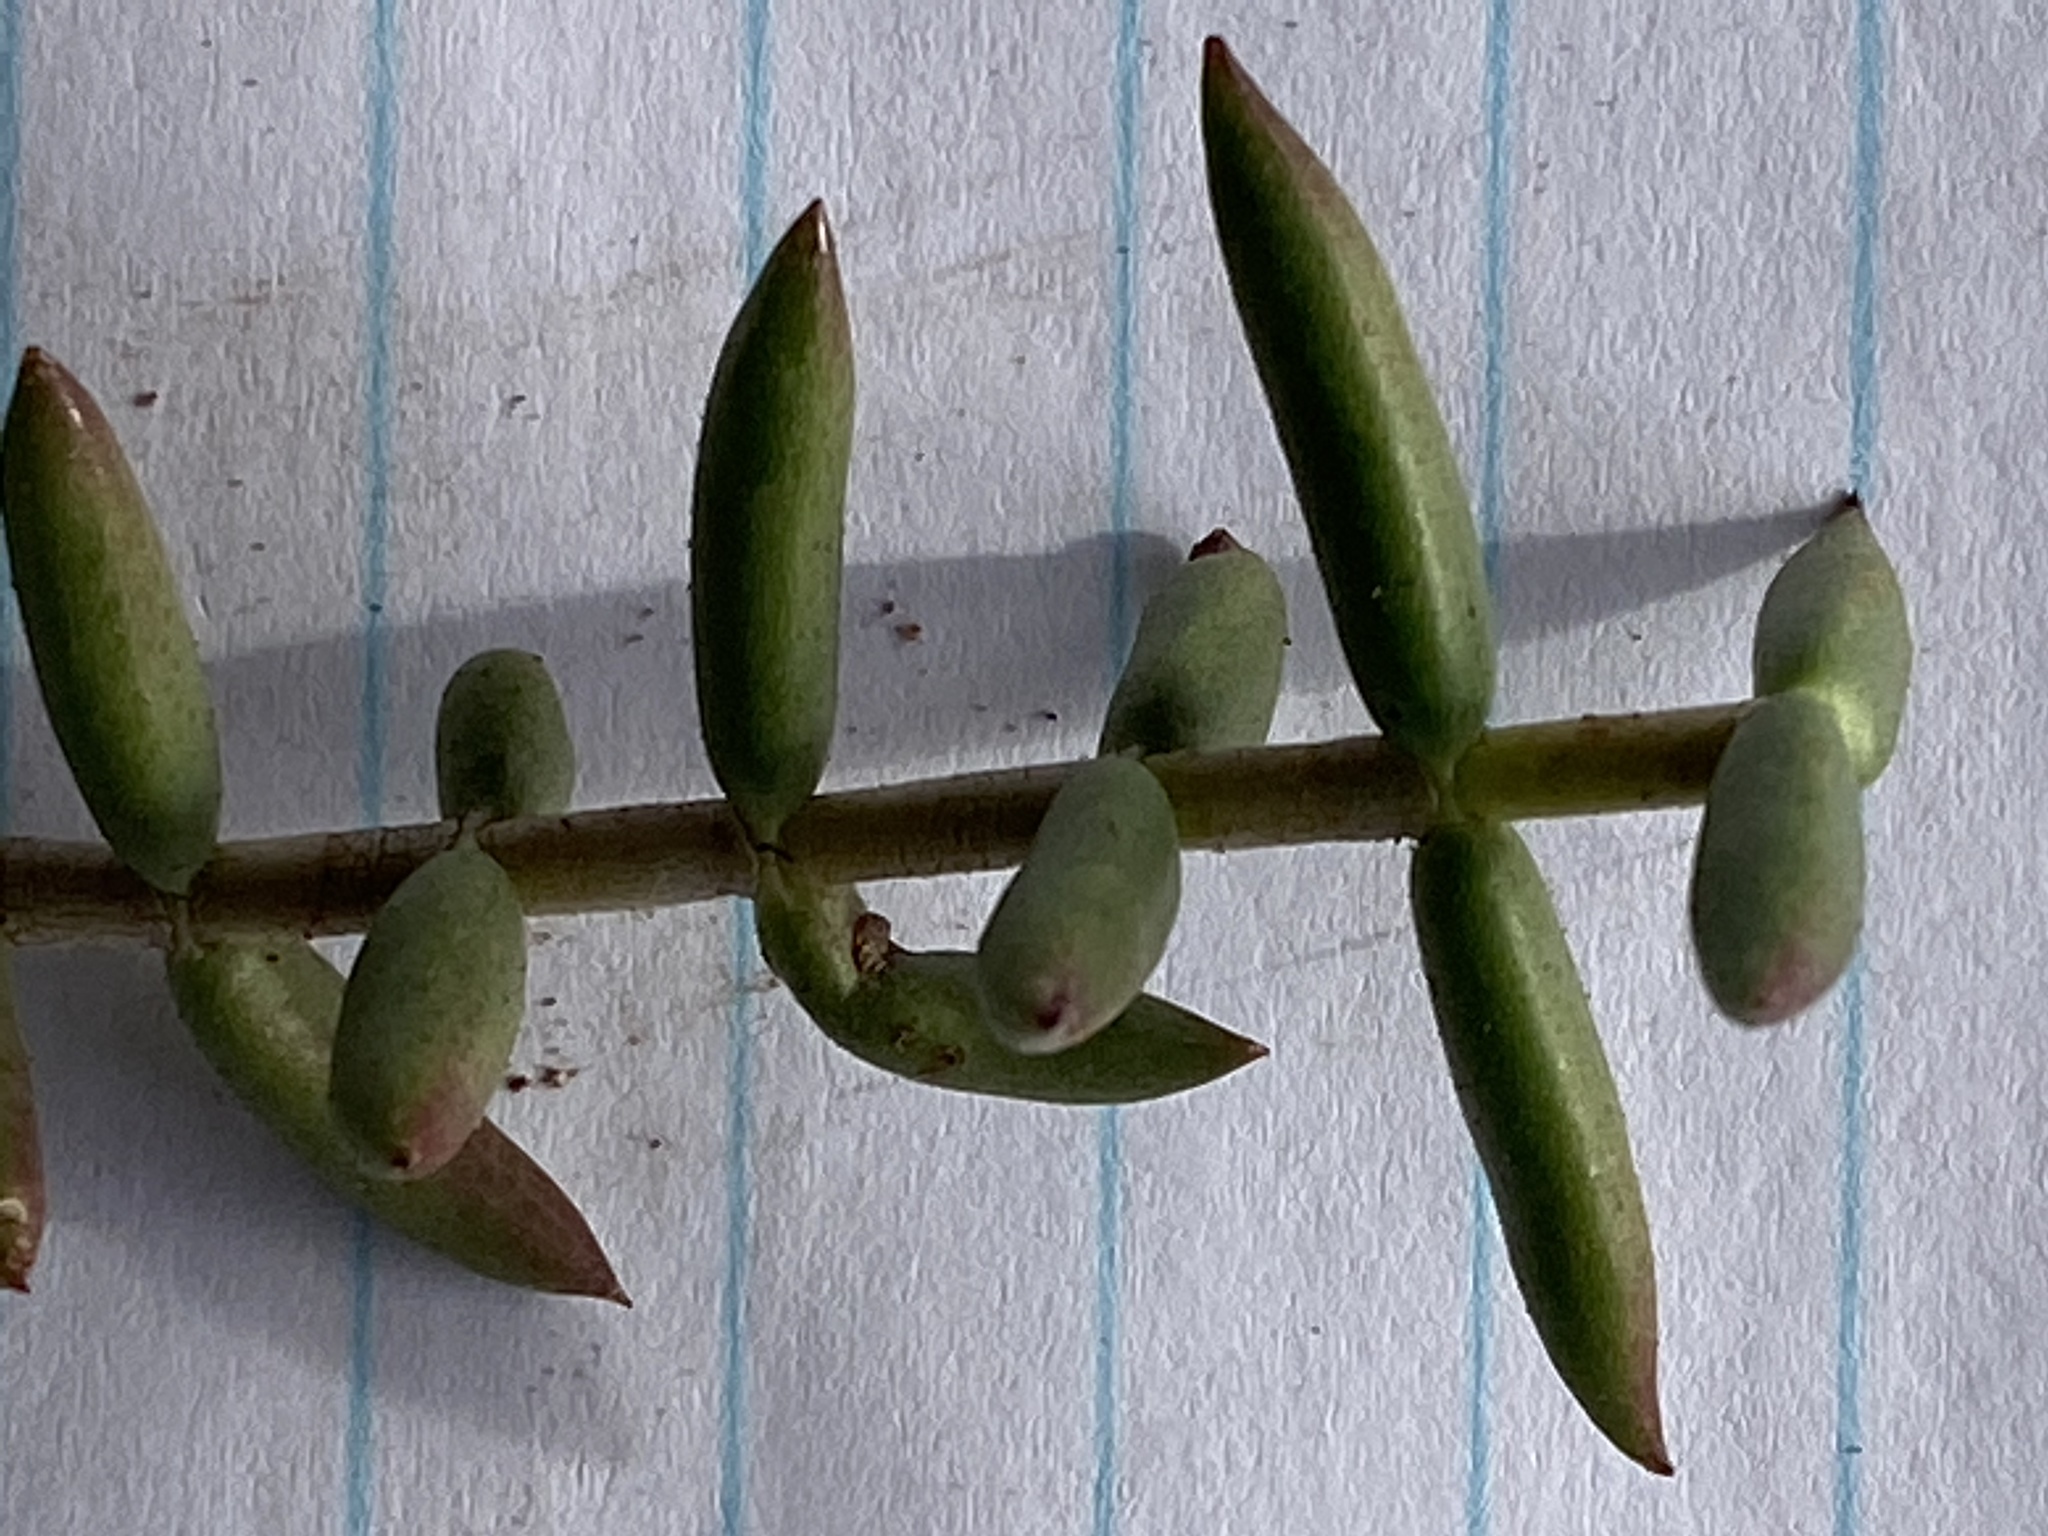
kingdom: Plantae
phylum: Tracheophyta
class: Magnoliopsida
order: Saxifragales
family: Crassulaceae
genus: Crassula
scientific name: Crassula tetragona
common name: Pygmyweed
